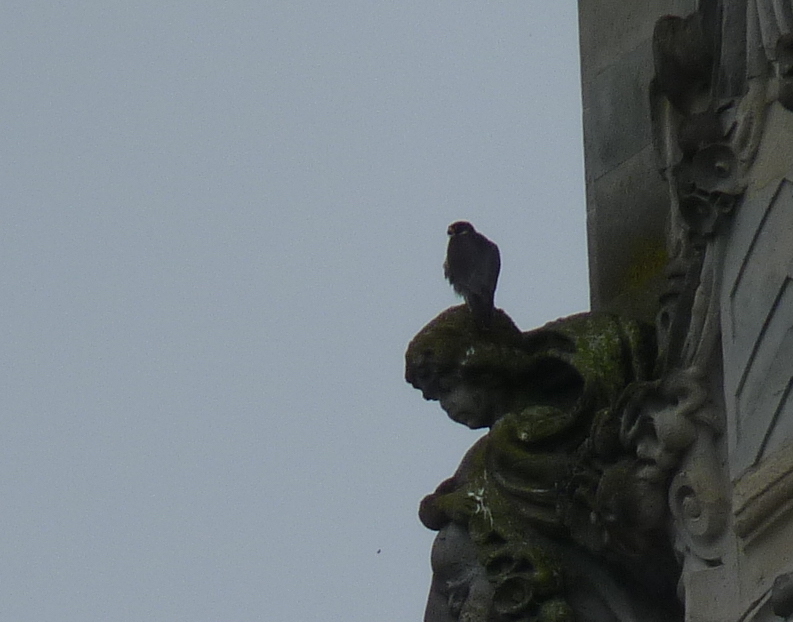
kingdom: Animalia
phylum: Chordata
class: Aves
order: Falconiformes
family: Falconidae
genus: Falco
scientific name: Falco peregrinus
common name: Peregrine falcon
